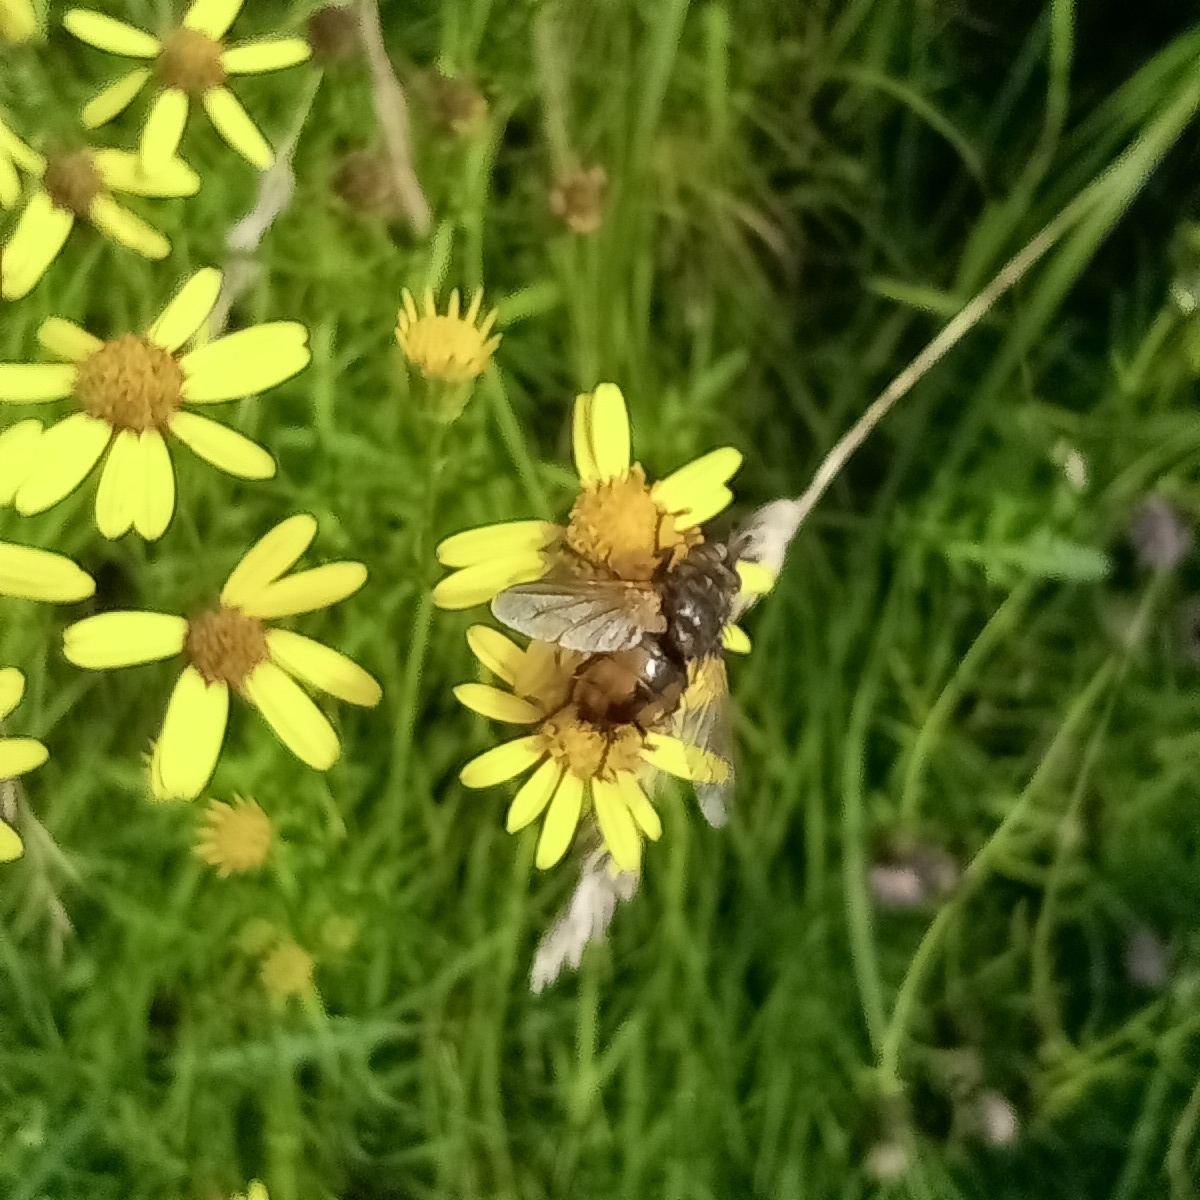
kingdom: Animalia
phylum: Arthropoda
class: Insecta
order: Diptera
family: Tachinidae
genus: Tachina
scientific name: Tachina fera
